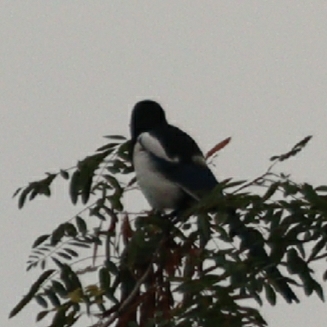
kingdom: Animalia
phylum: Chordata
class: Aves
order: Passeriformes
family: Corvidae
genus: Pica
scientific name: Pica pica
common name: Eurasian magpie
